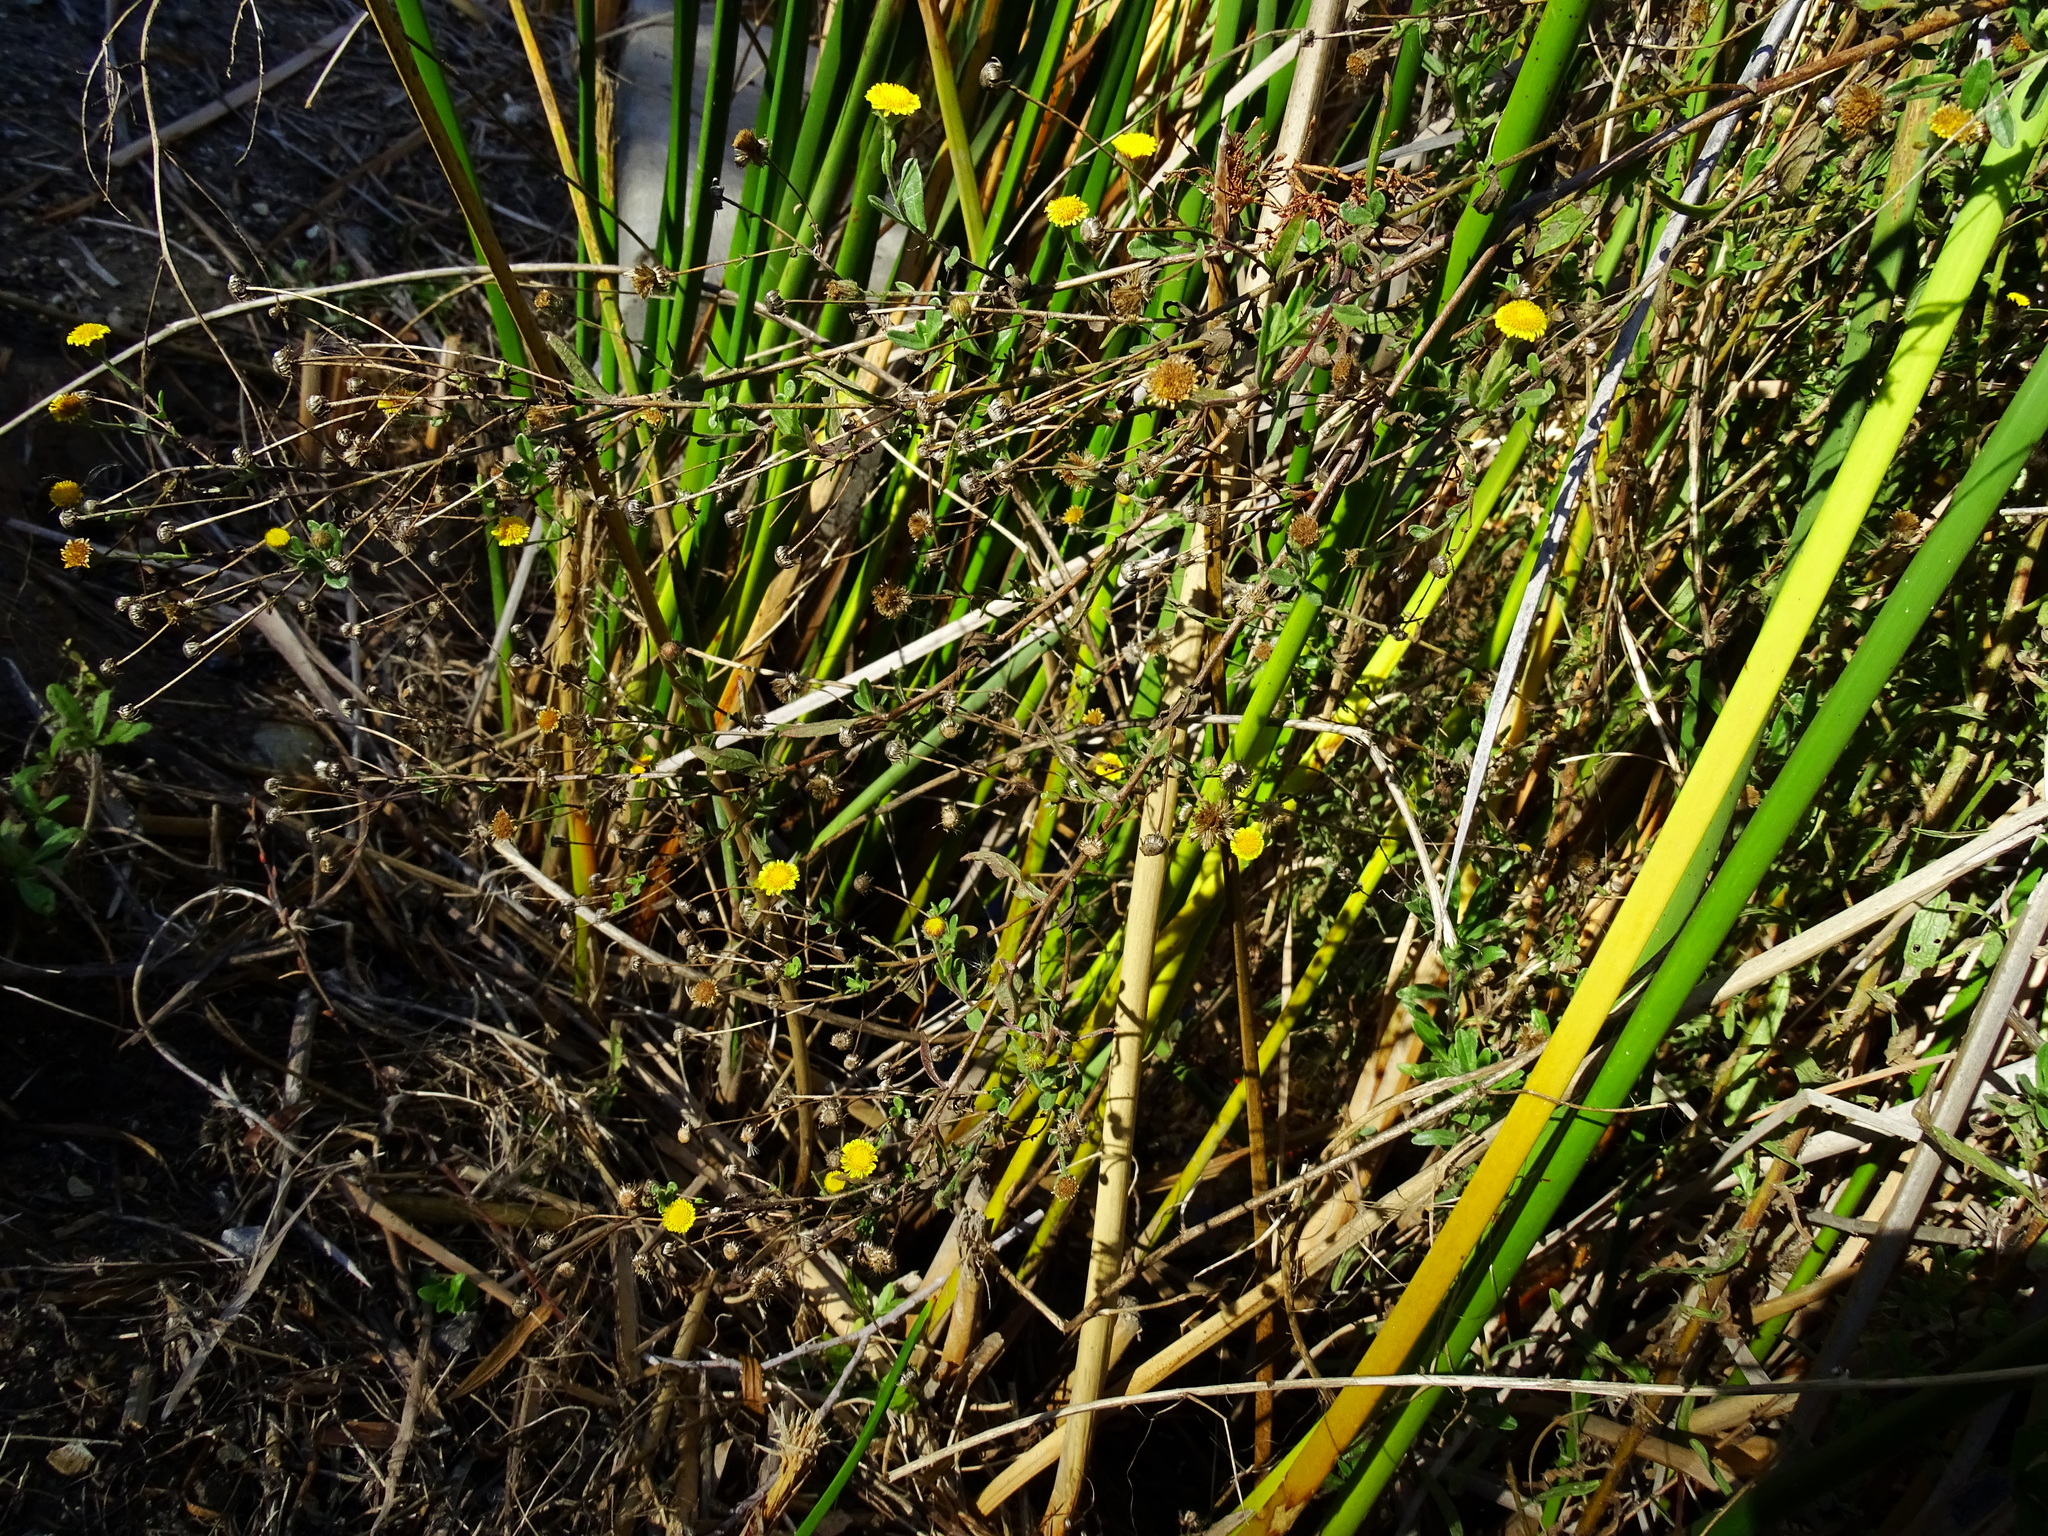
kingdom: Plantae
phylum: Tracheophyta
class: Magnoliopsida
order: Asterales
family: Asteraceae
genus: Pulicaria
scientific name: Pulicaria paludosa
